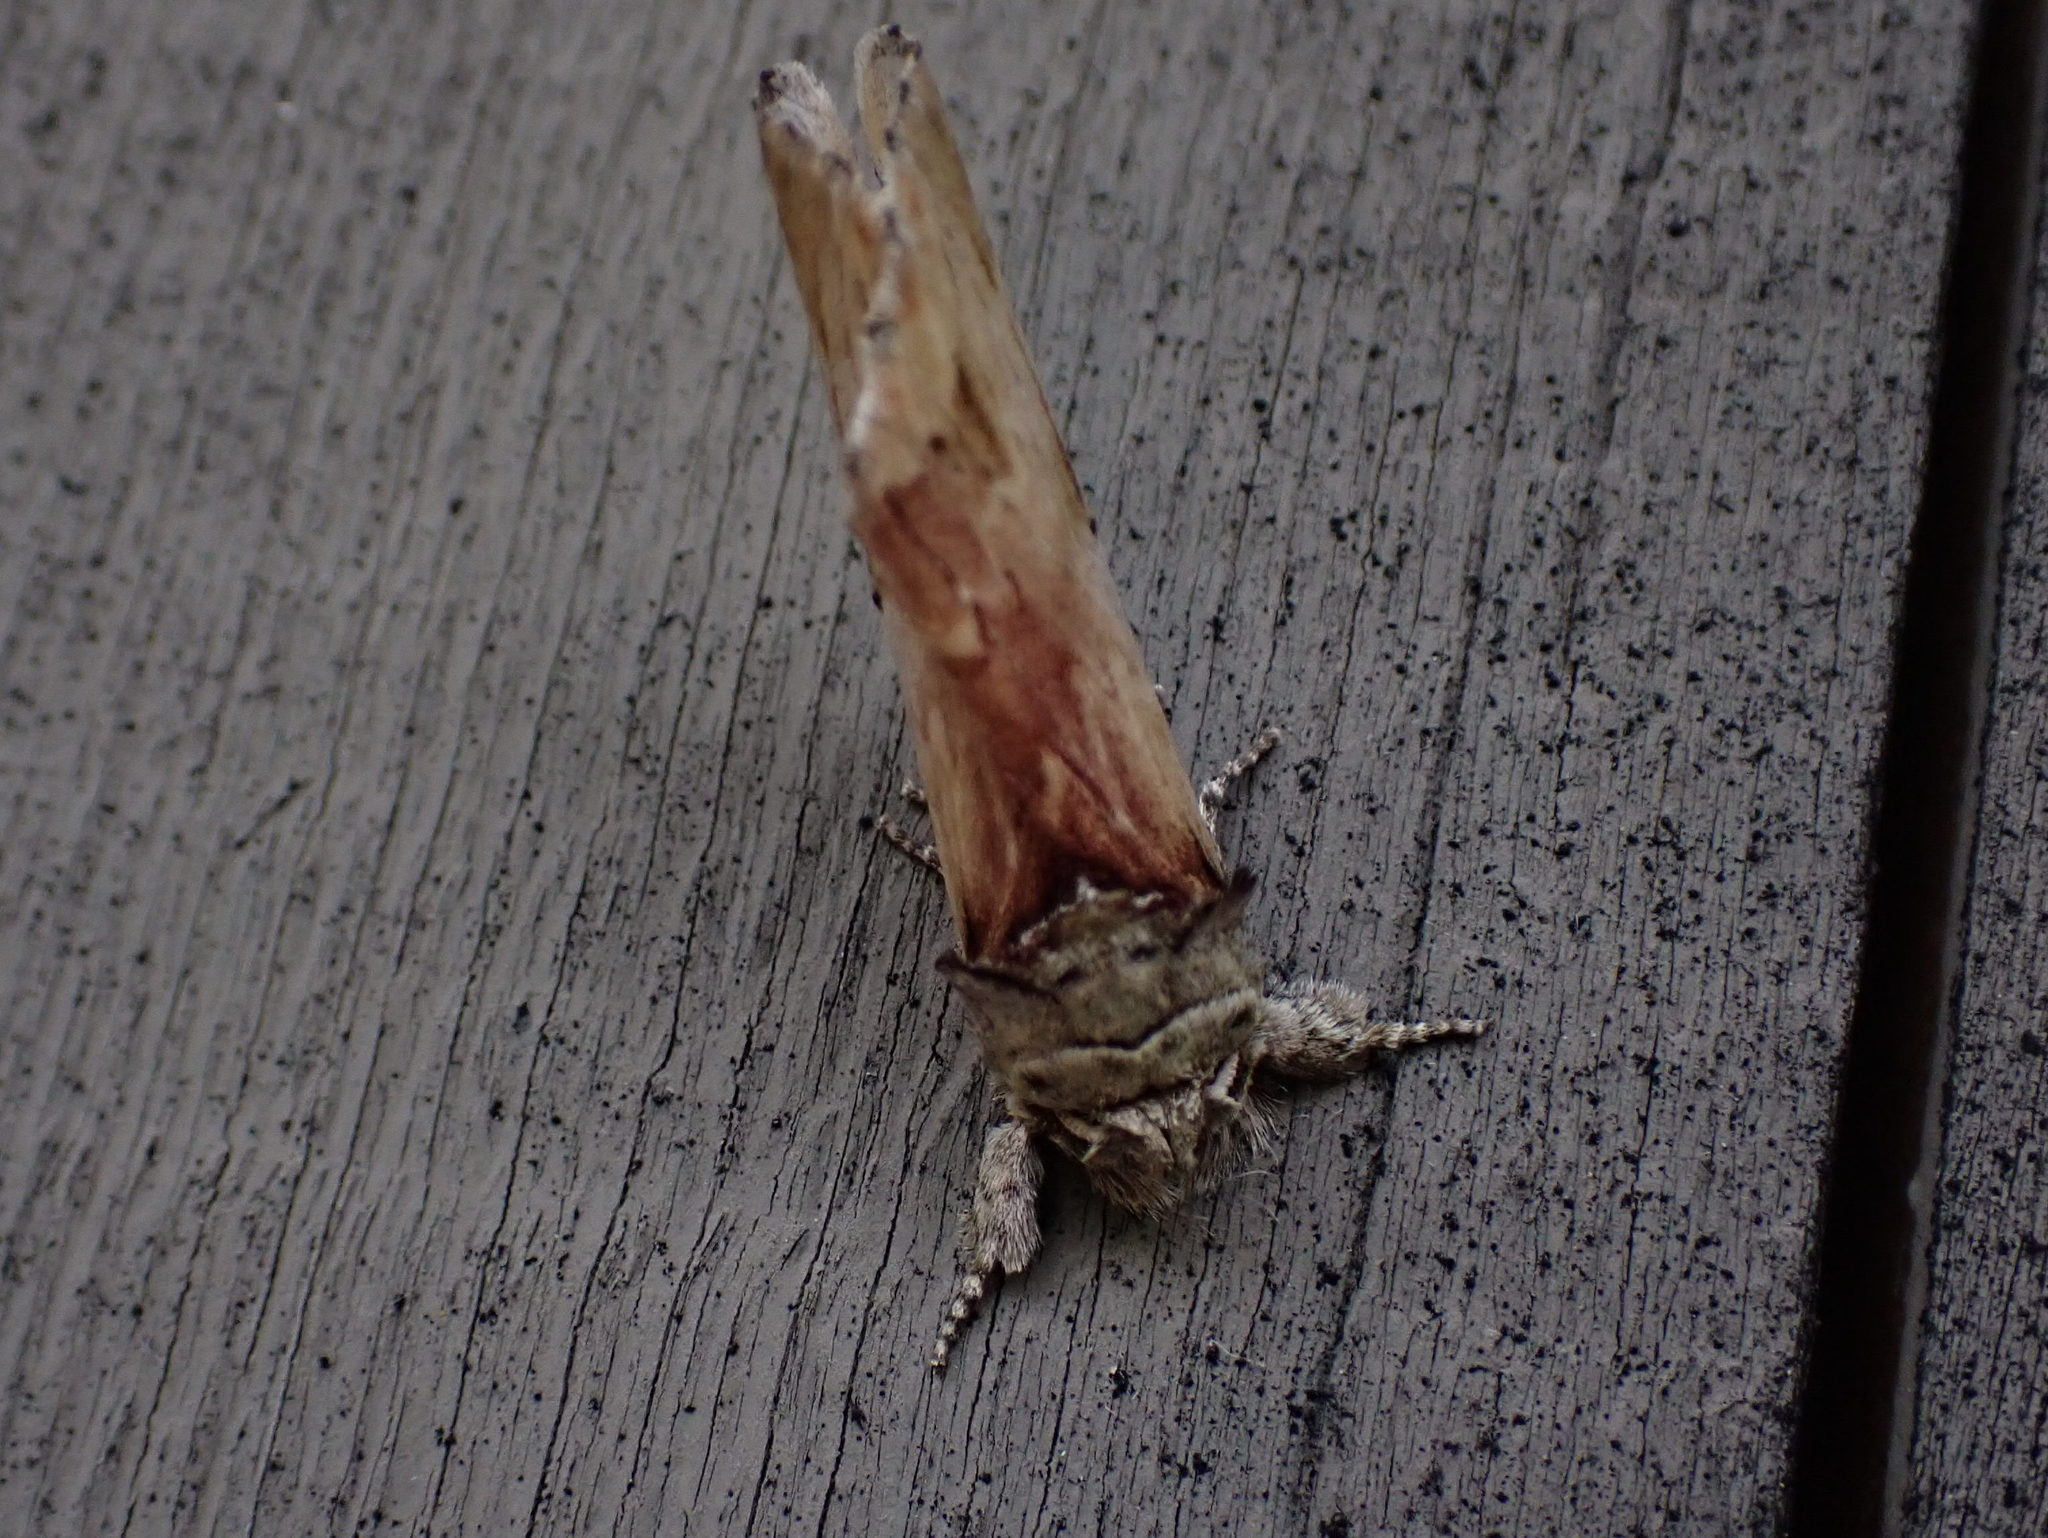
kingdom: Animalia
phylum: Arthropoda
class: Insecta
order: Lepidoptera
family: Notodontidae
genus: Schizura
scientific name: Schizura
